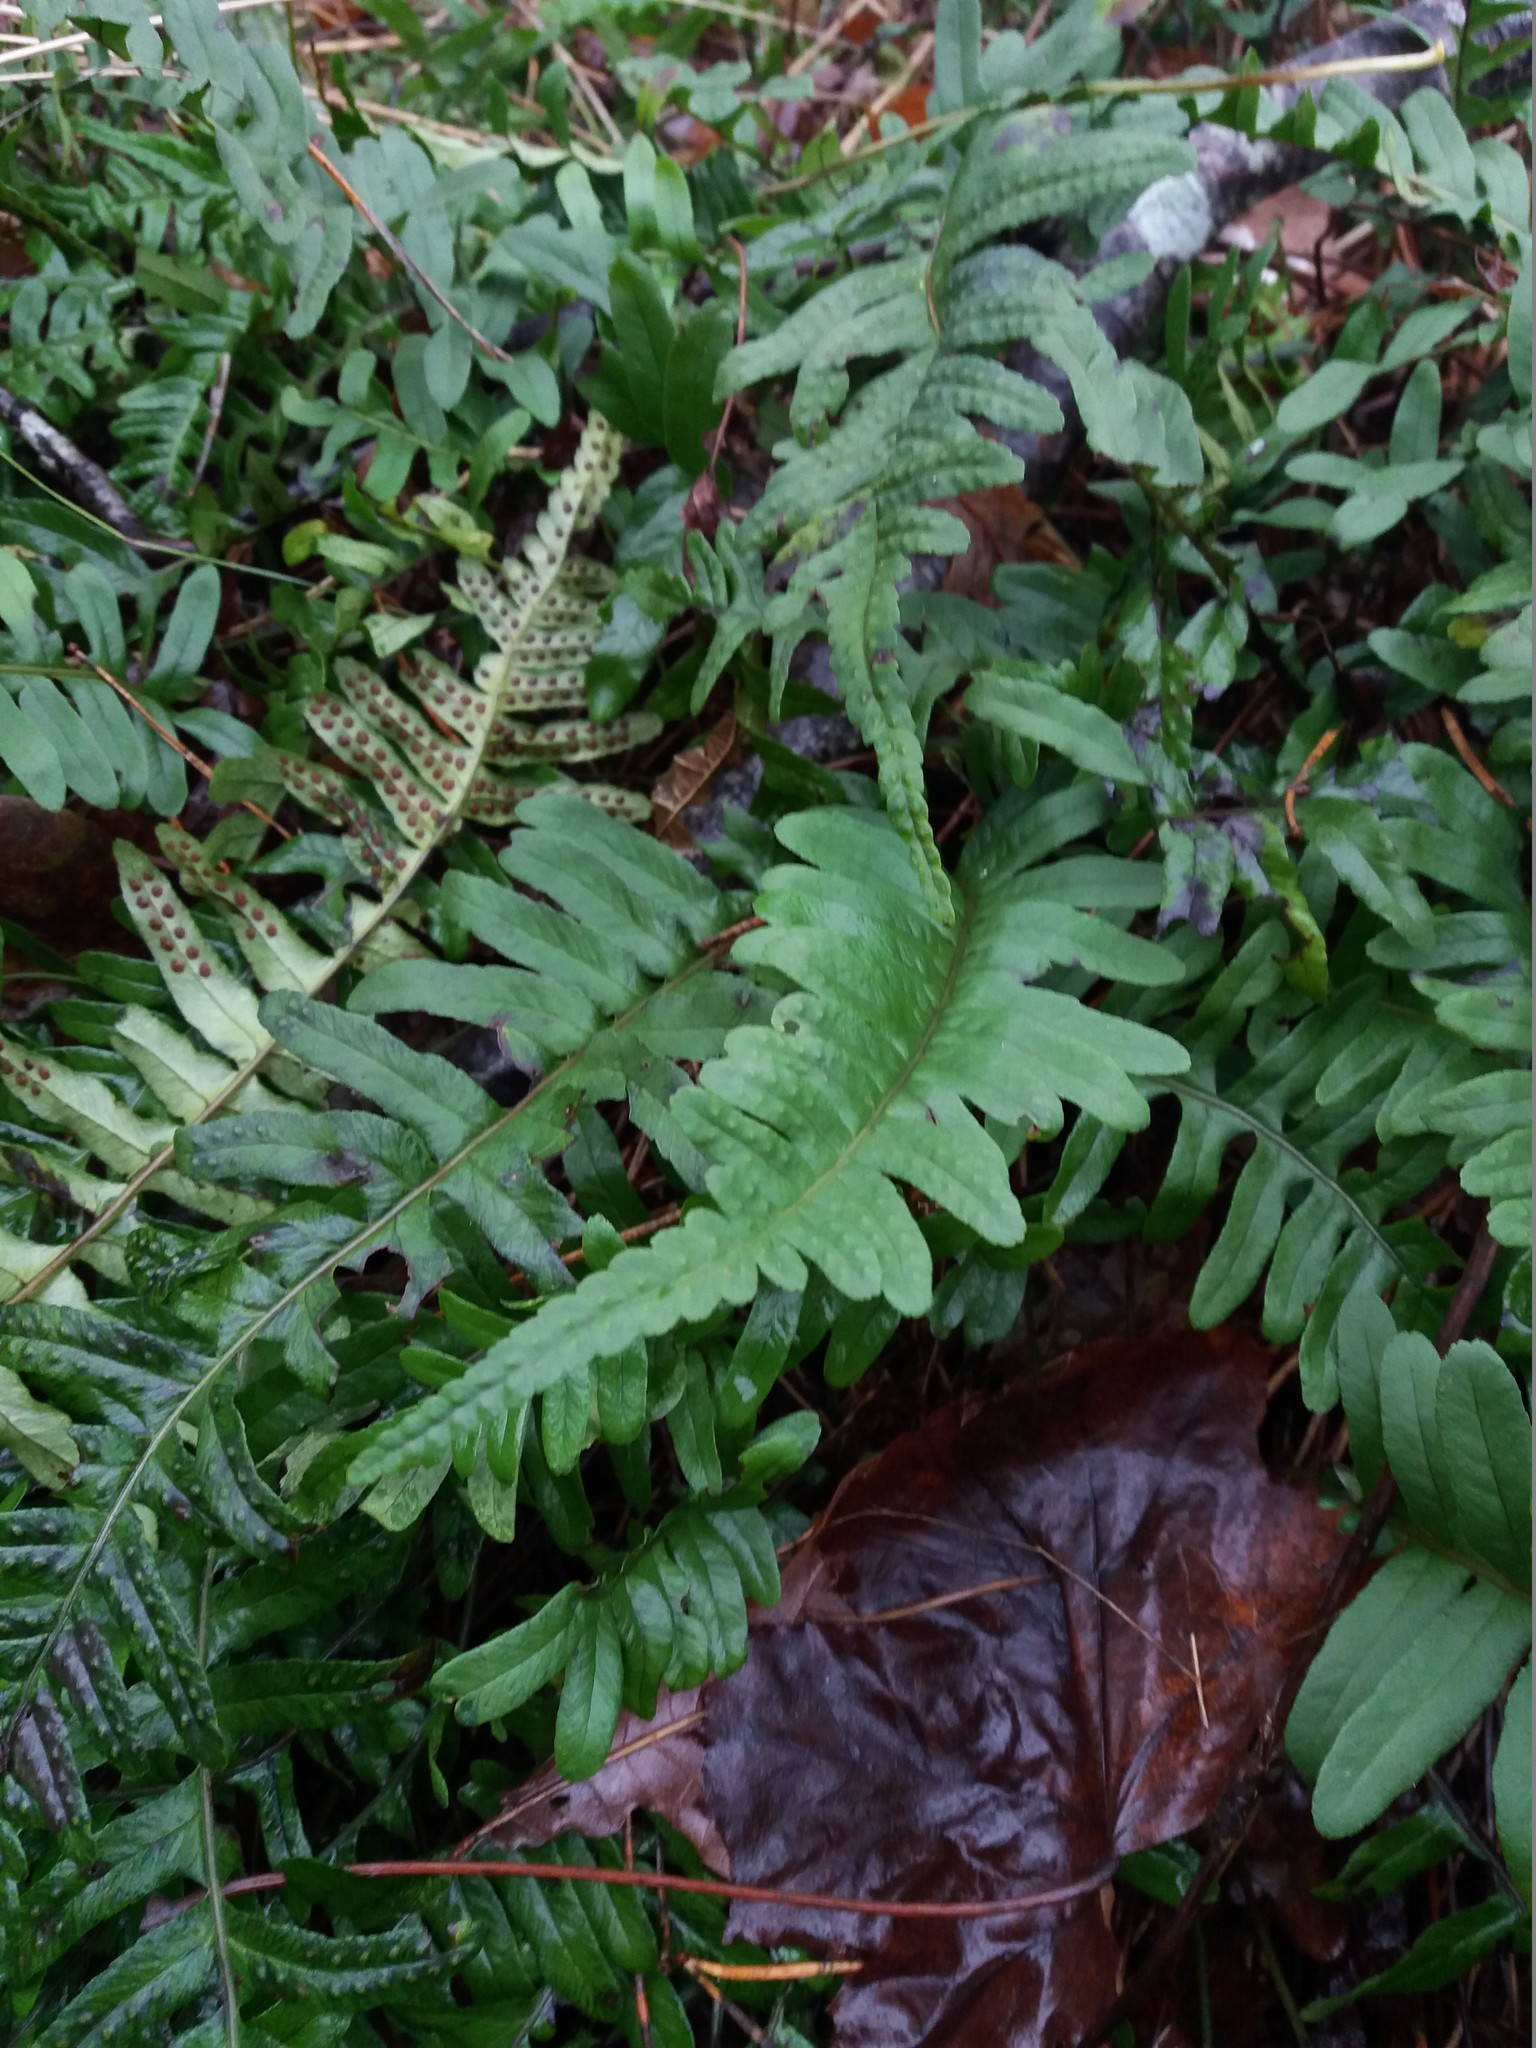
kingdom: Plantae
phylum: Tracheophyta
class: Polypodiopsida
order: Polypodiales
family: Polypodiaceae
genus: Polypodium
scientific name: Polypodium vulgare
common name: Common polypody
